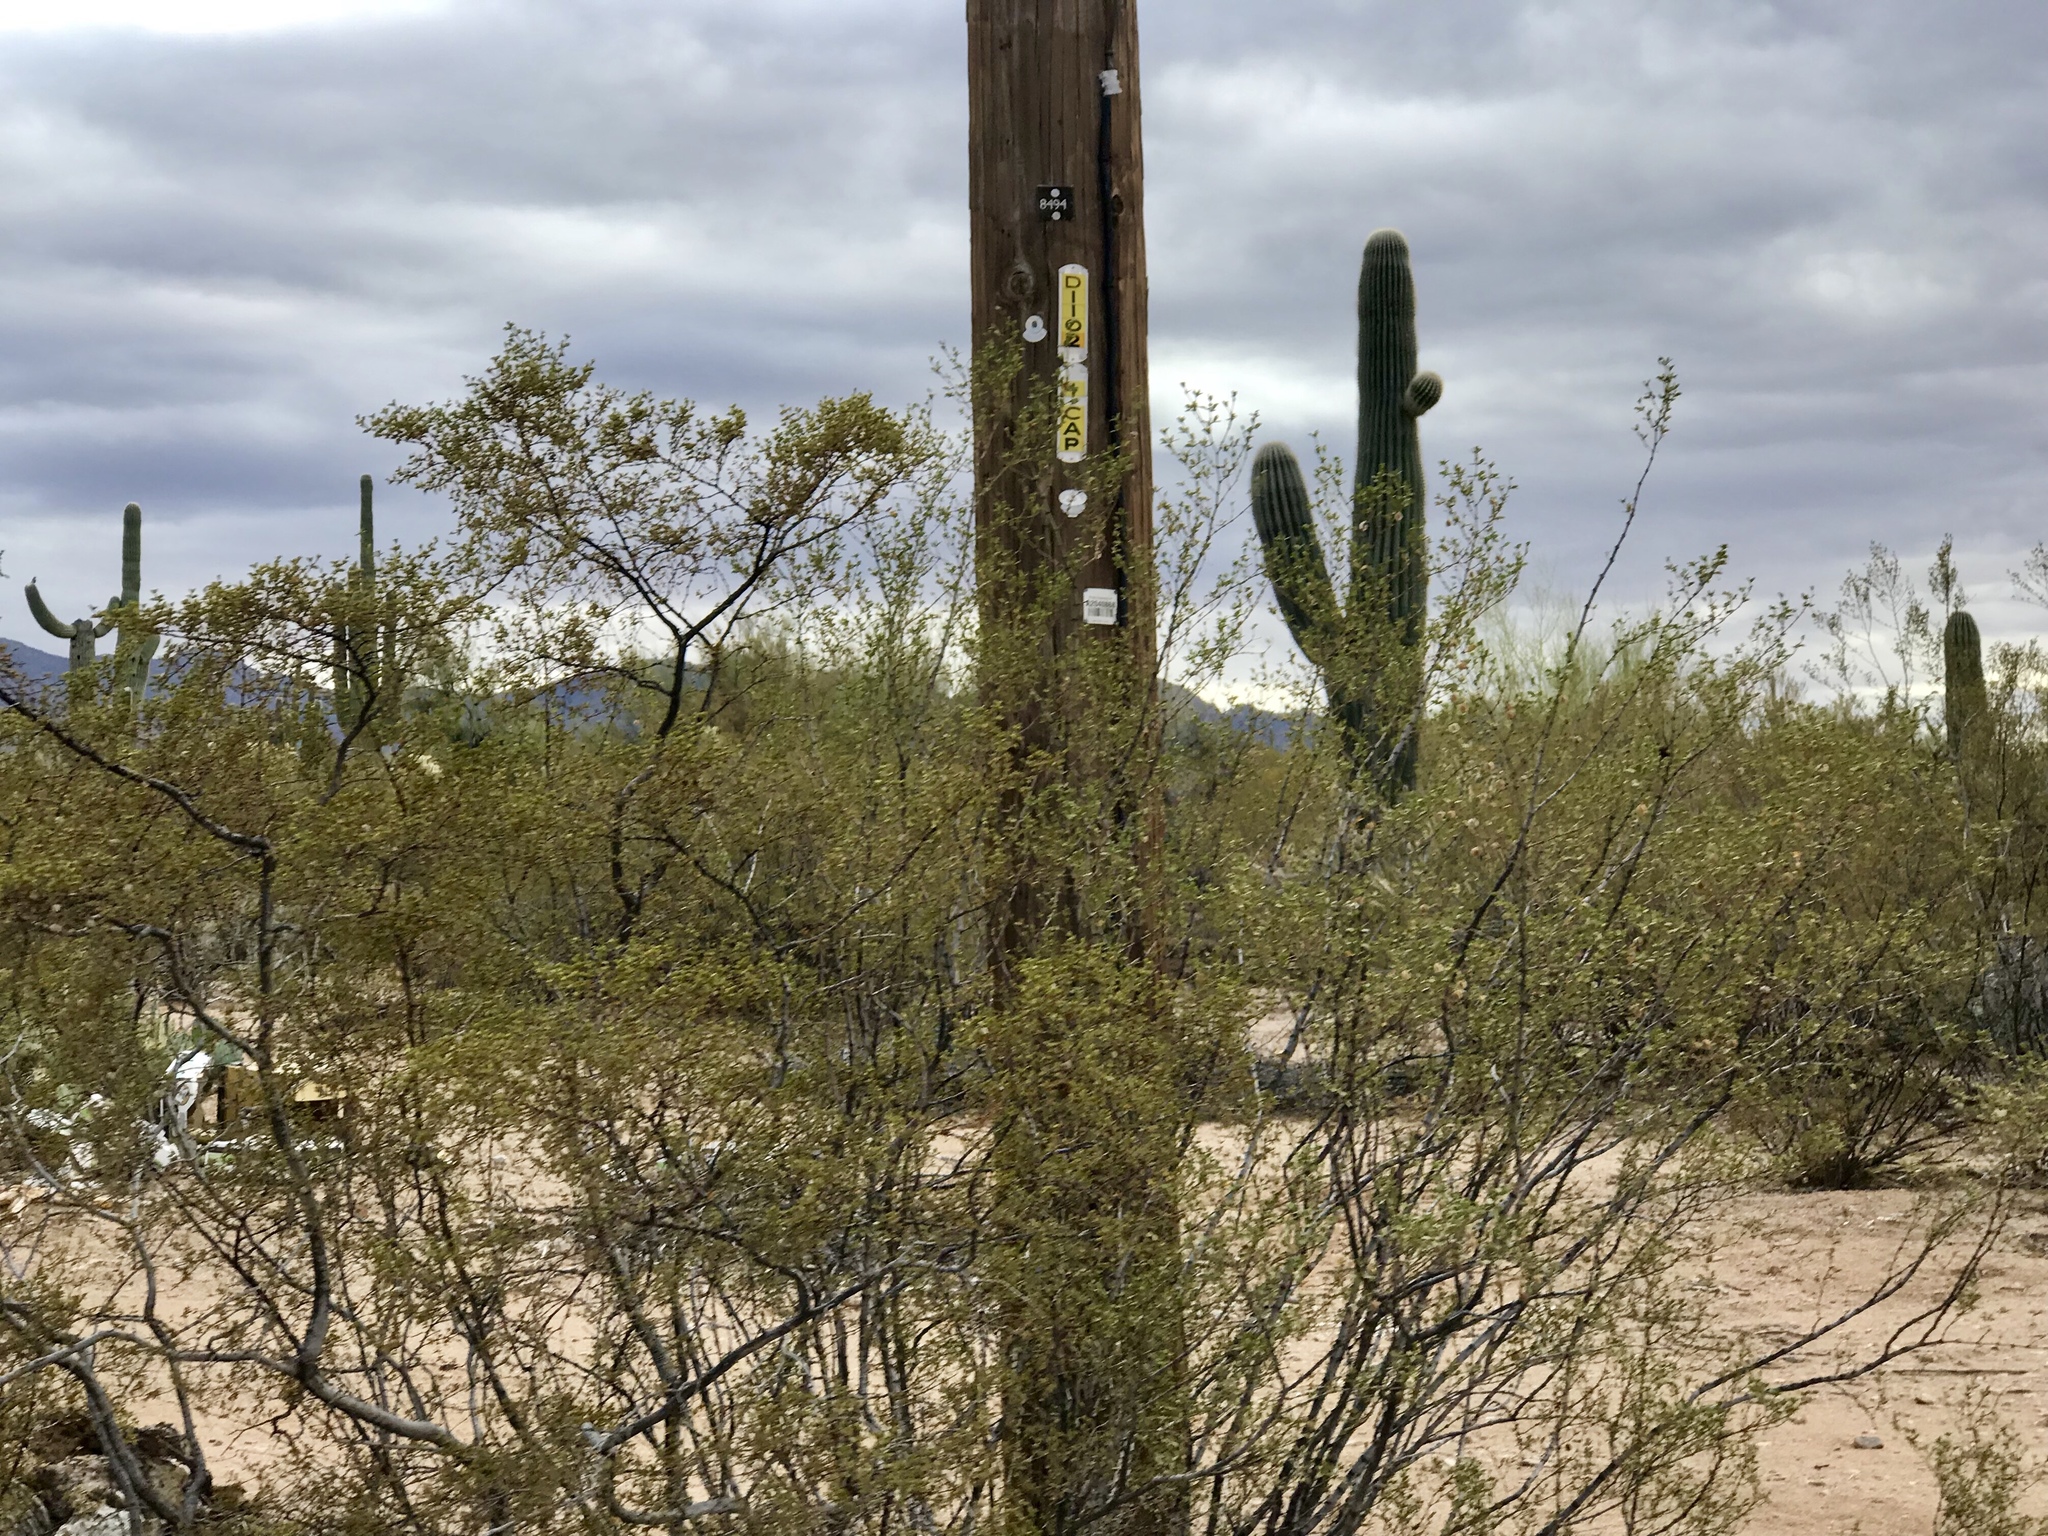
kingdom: Plantae
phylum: Tracheophyta
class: Magnoliopsida
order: Zygophyllales
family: Zygophyllaceae
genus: Larrea
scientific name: Larrea tridentata
